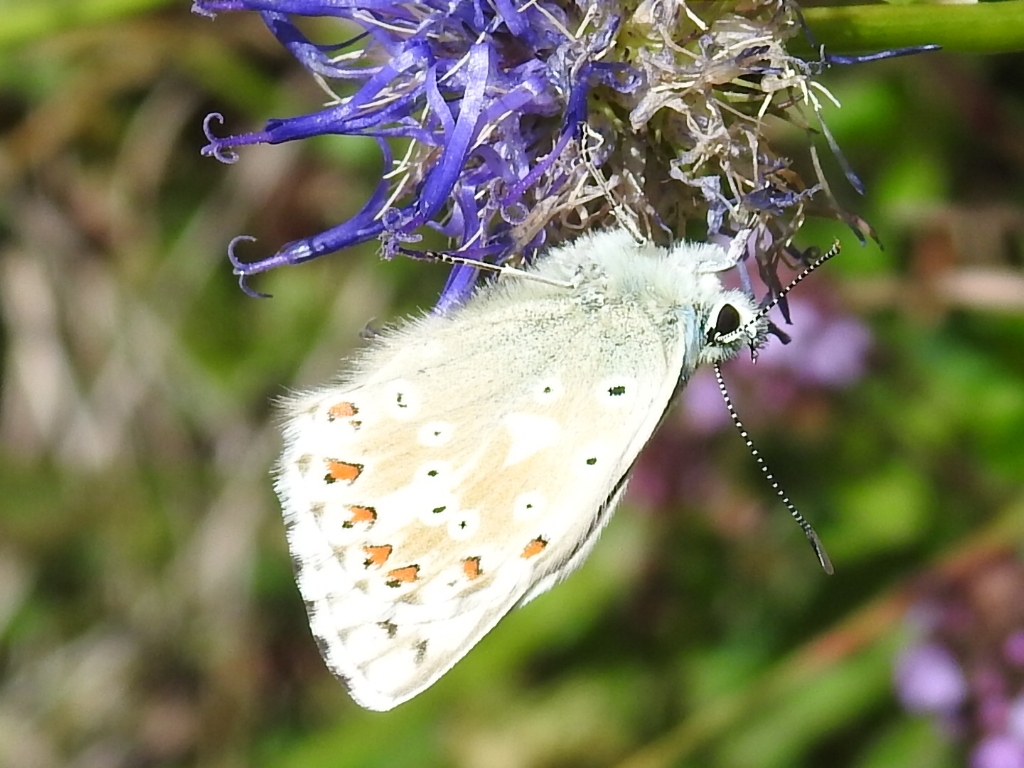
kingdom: Animalia
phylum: Arthropoda
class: Insecta
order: Lepidoptera
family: Lycaenidae
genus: Lysandra
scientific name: Lysandra coridon
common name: Chalkhill blue
